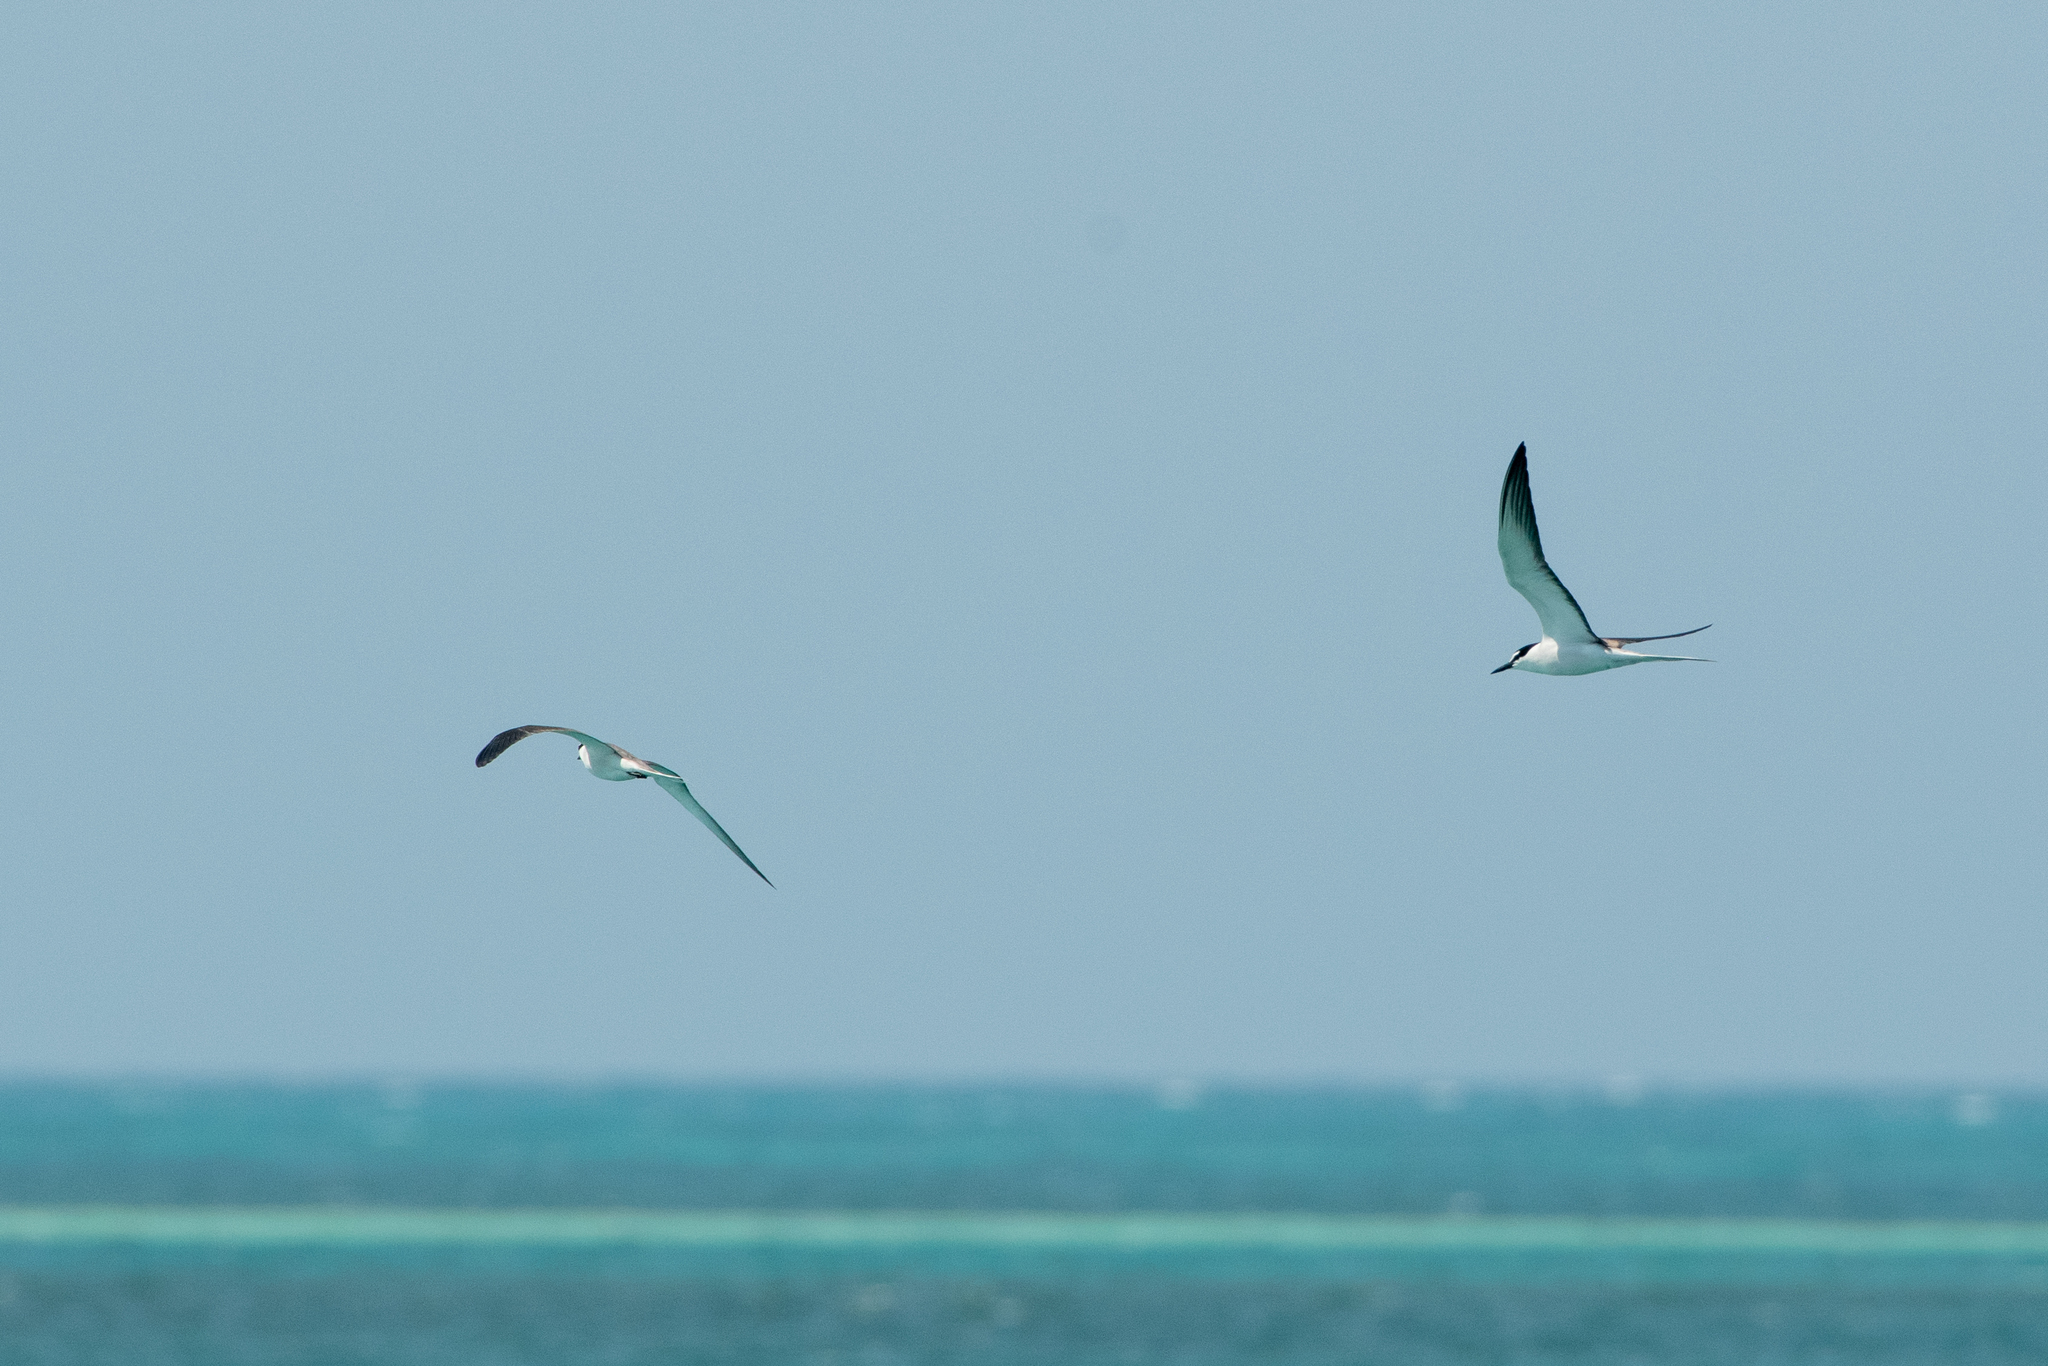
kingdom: Animalia
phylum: Chordata
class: Aves
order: Charadriiformes
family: Laridae
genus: Onychoprion
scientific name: Onychoprion anaethetus
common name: Bridled tern
